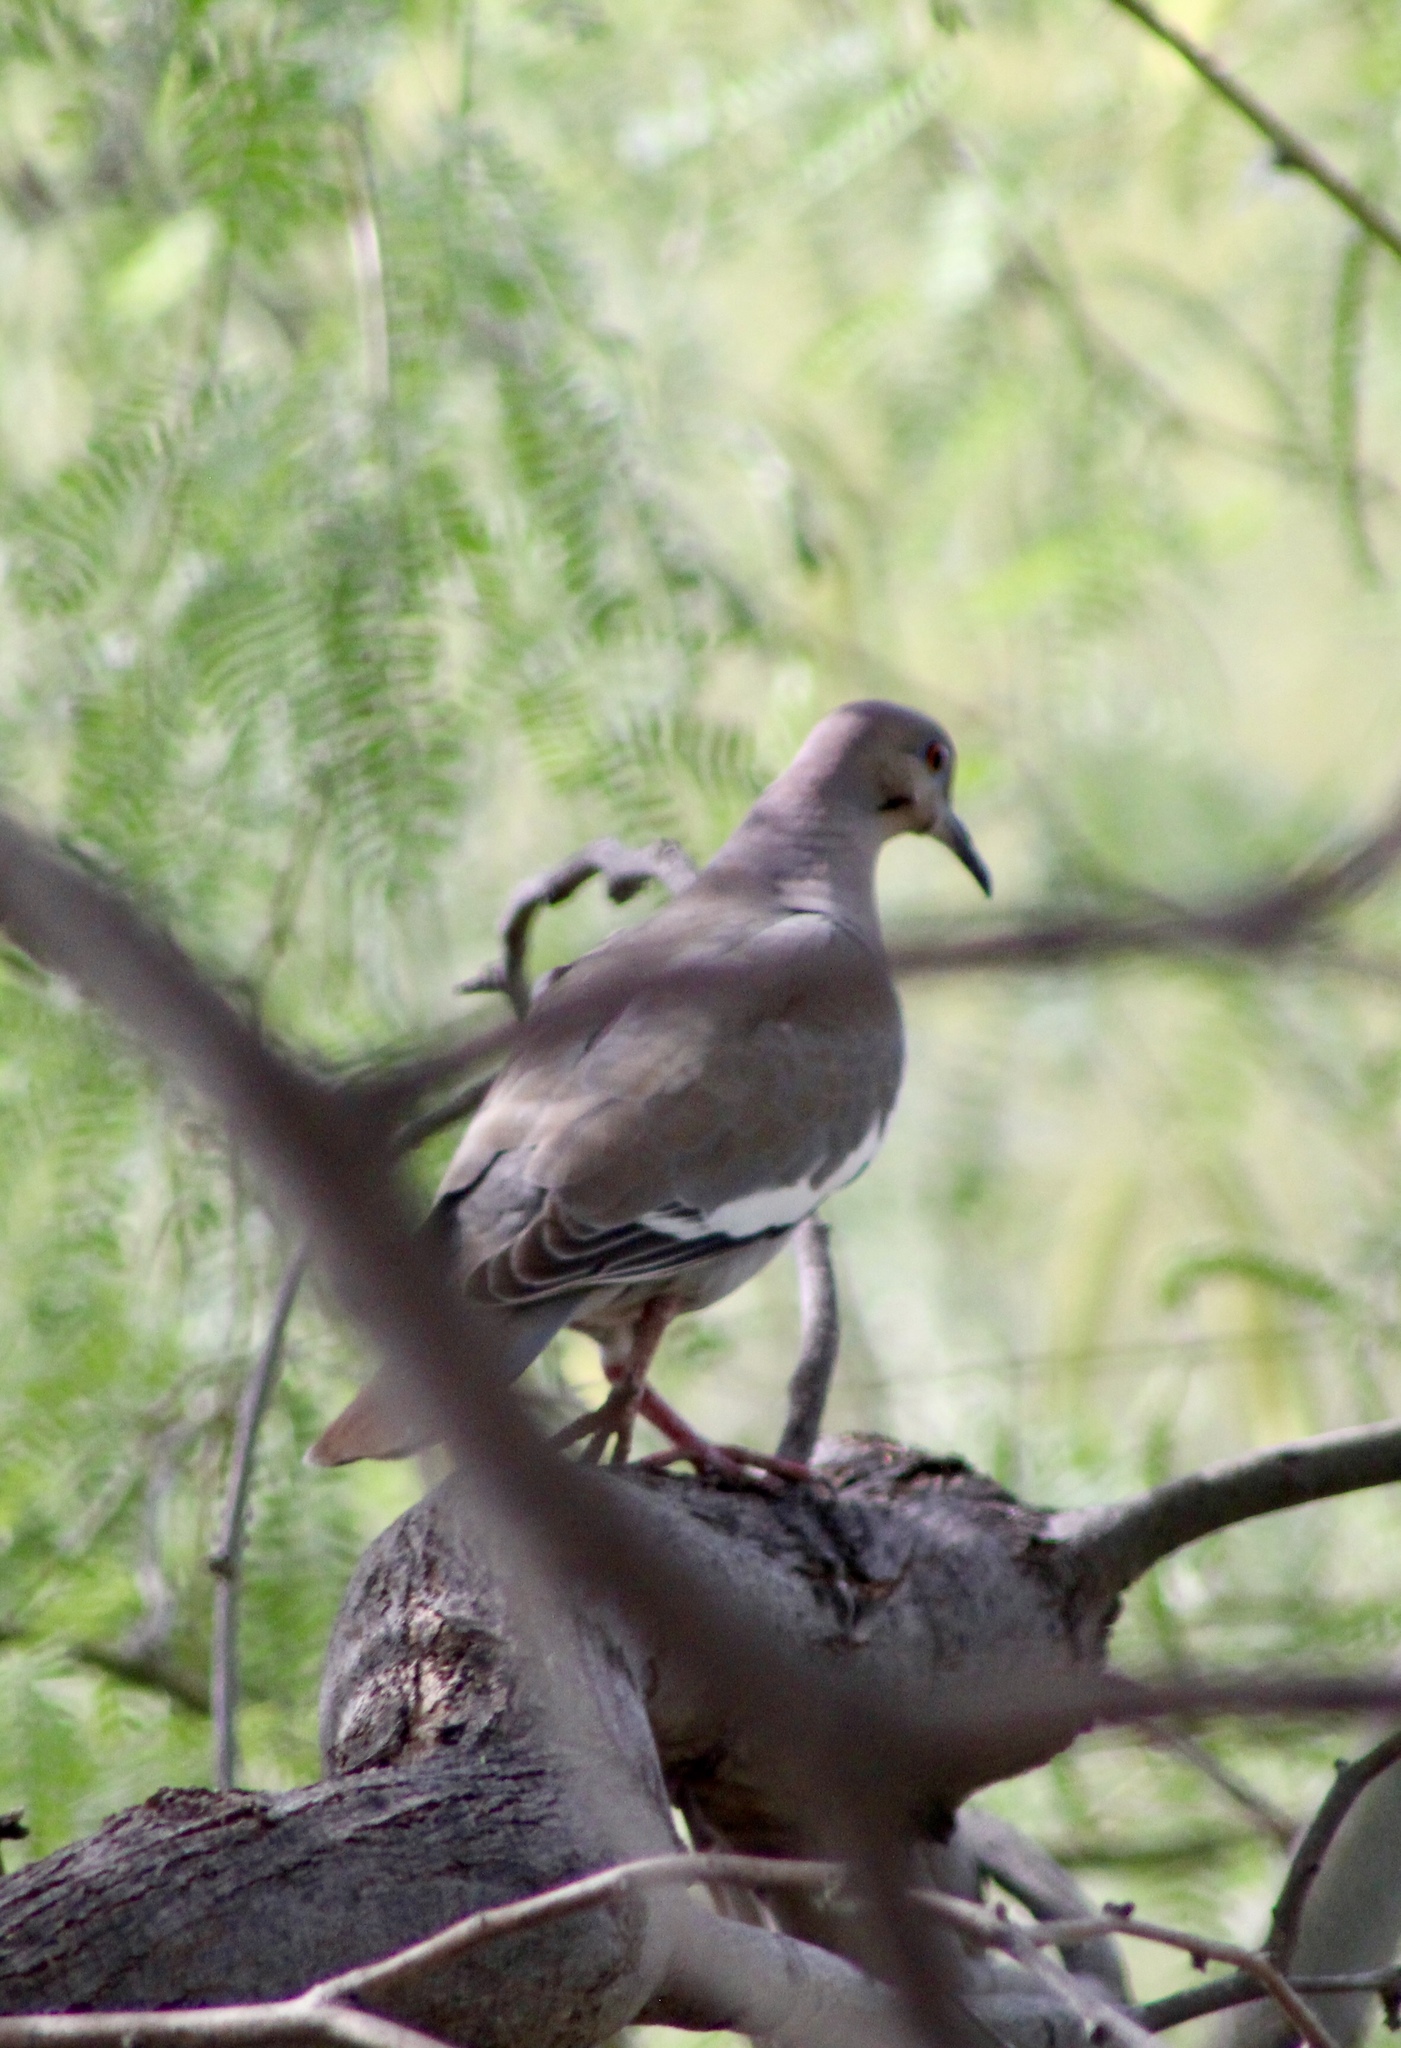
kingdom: Animalia
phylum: Chordata
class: Aves
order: Columbiformes
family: Columbidae
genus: Zenaida
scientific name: Zenaida asiatica
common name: White-winged dove
